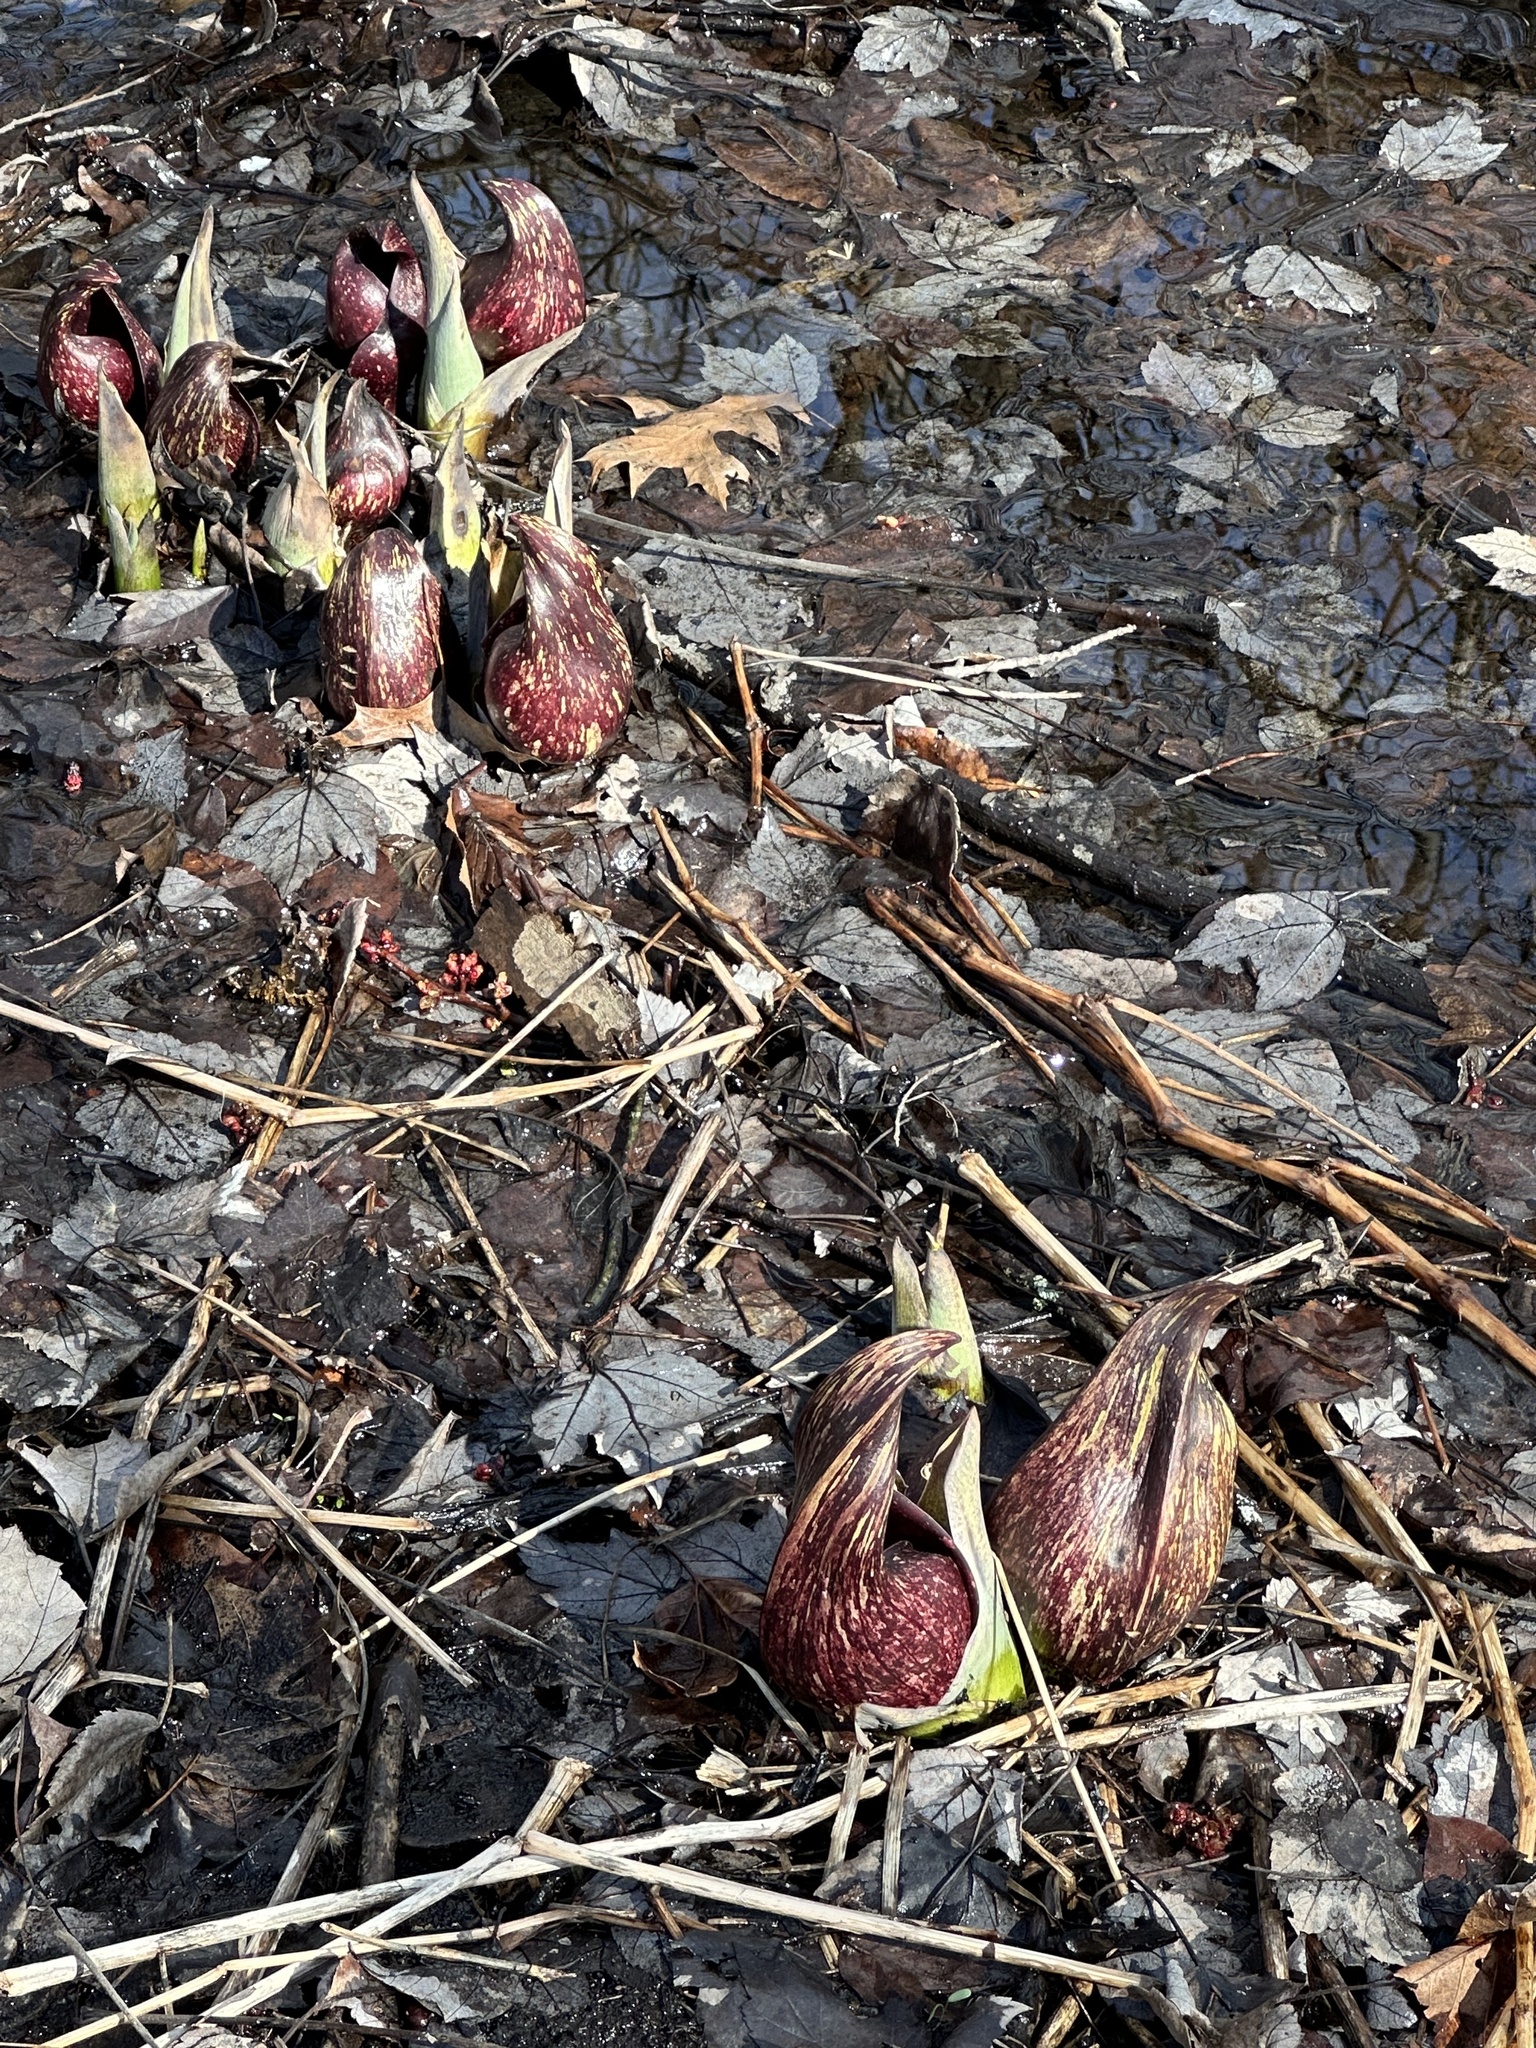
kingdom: Plantae
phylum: Tracheophyta
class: Liliopsida
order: Alismatales
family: Araceae
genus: Symplocarpus
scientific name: Symplocarpus foetidus
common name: Eastern skunk cabbage
